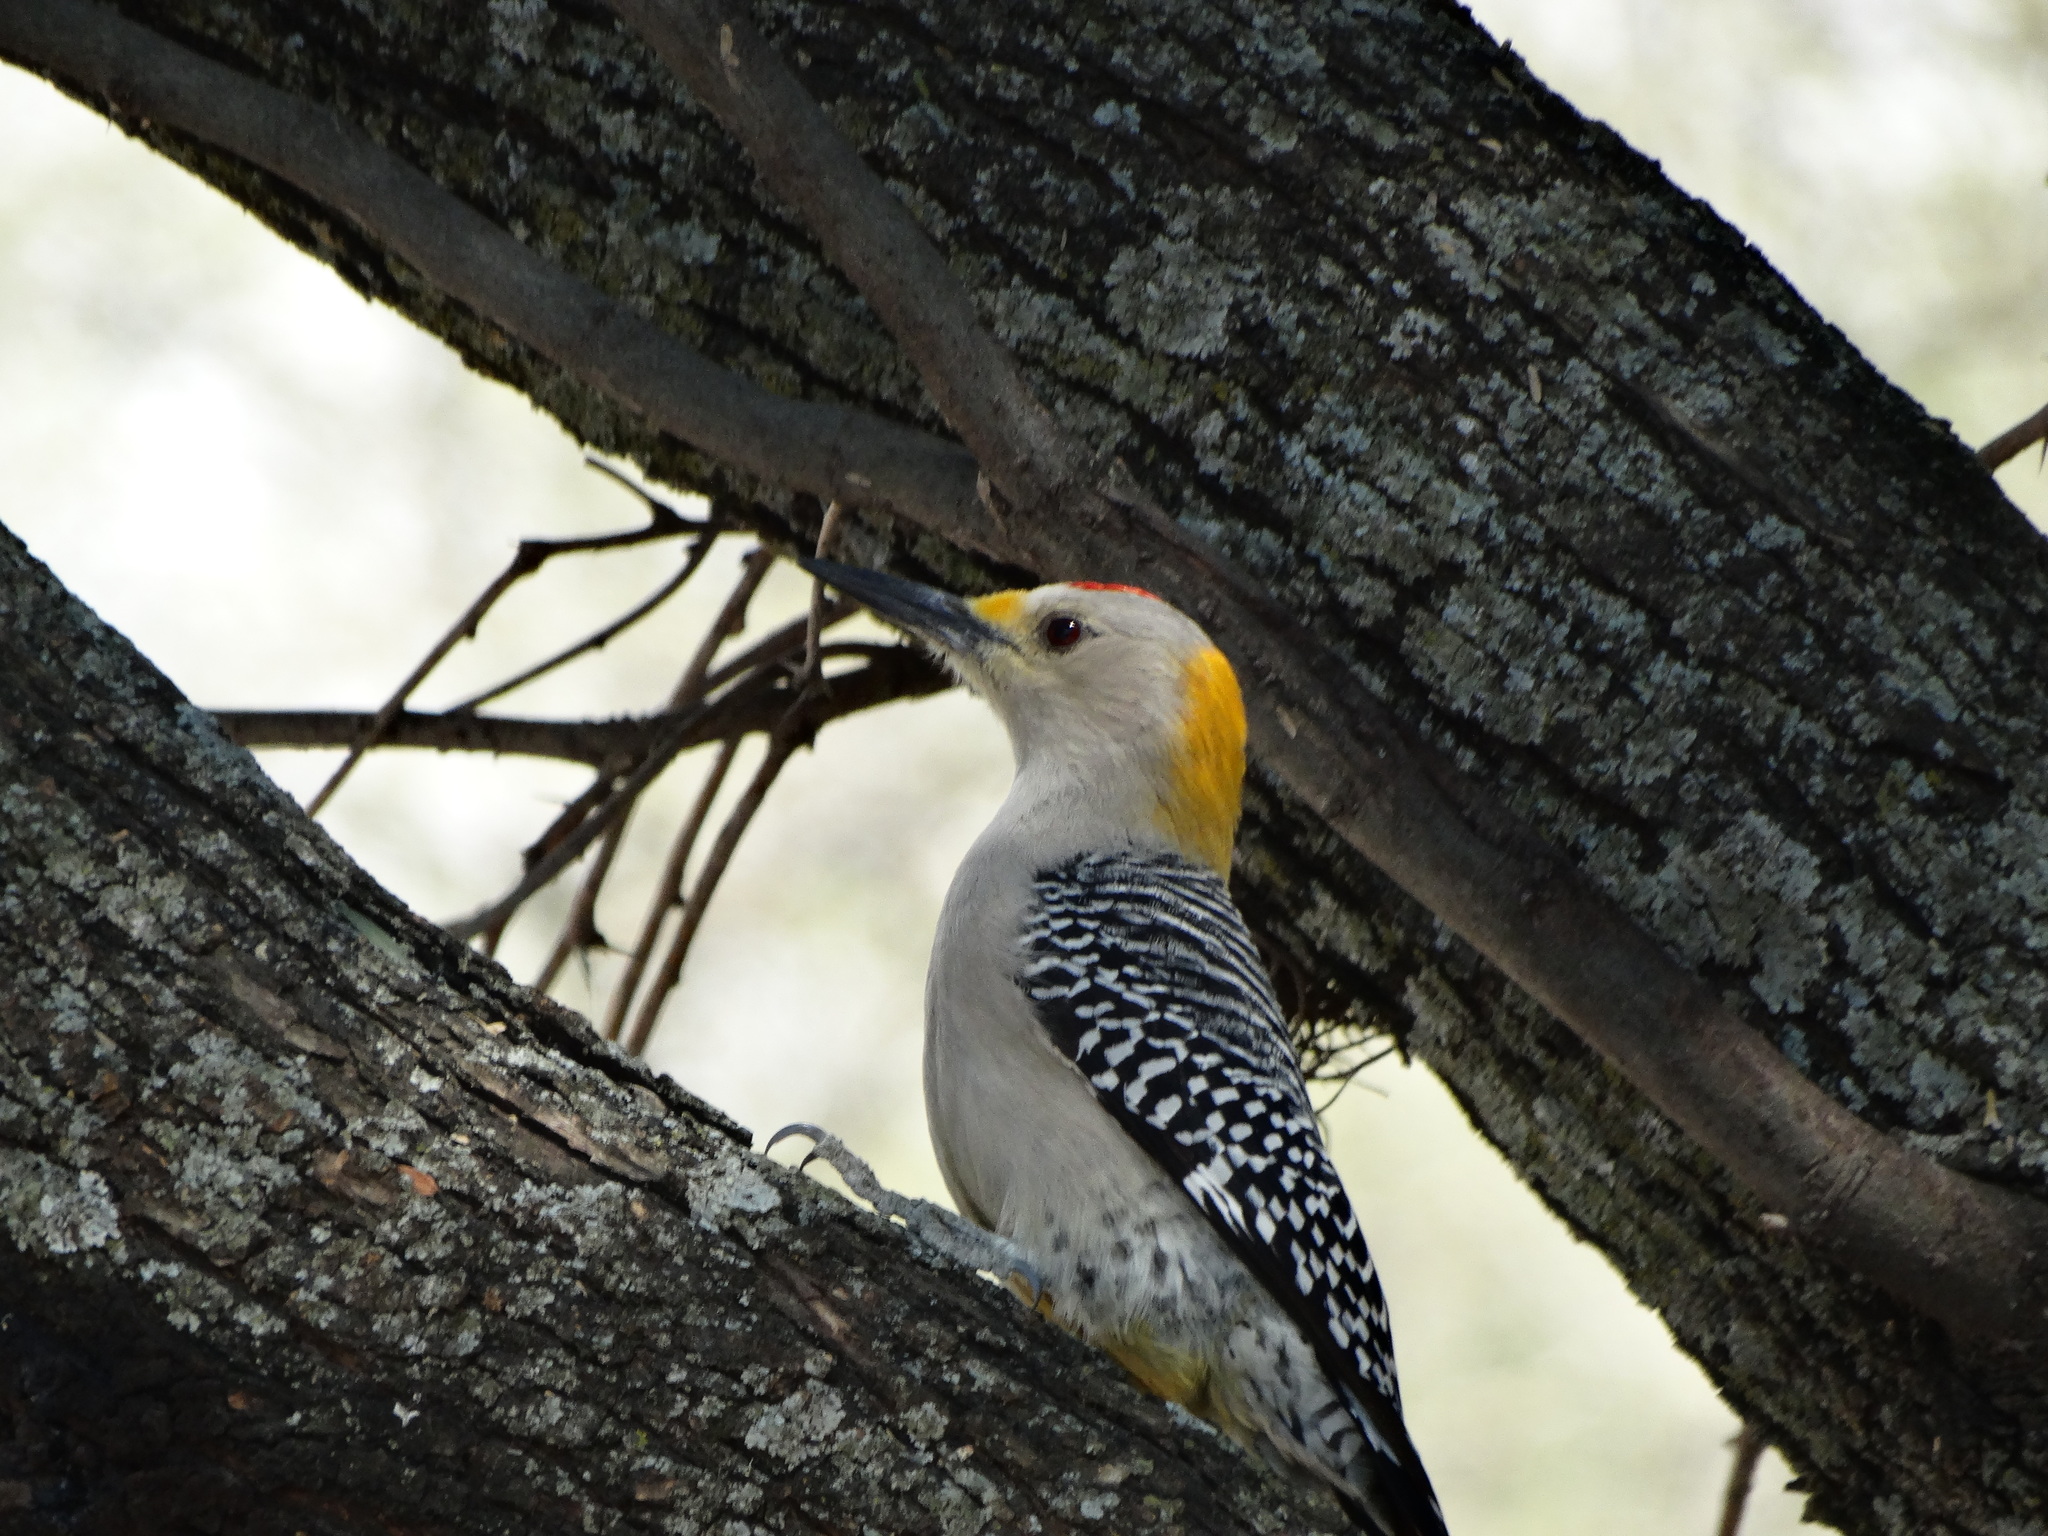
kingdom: Animalia
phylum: Chordata
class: Aves
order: Piciformes
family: Picidae
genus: Melanerpes
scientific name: Melanerpes aurifrons
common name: Golden-fronted woodpecker
